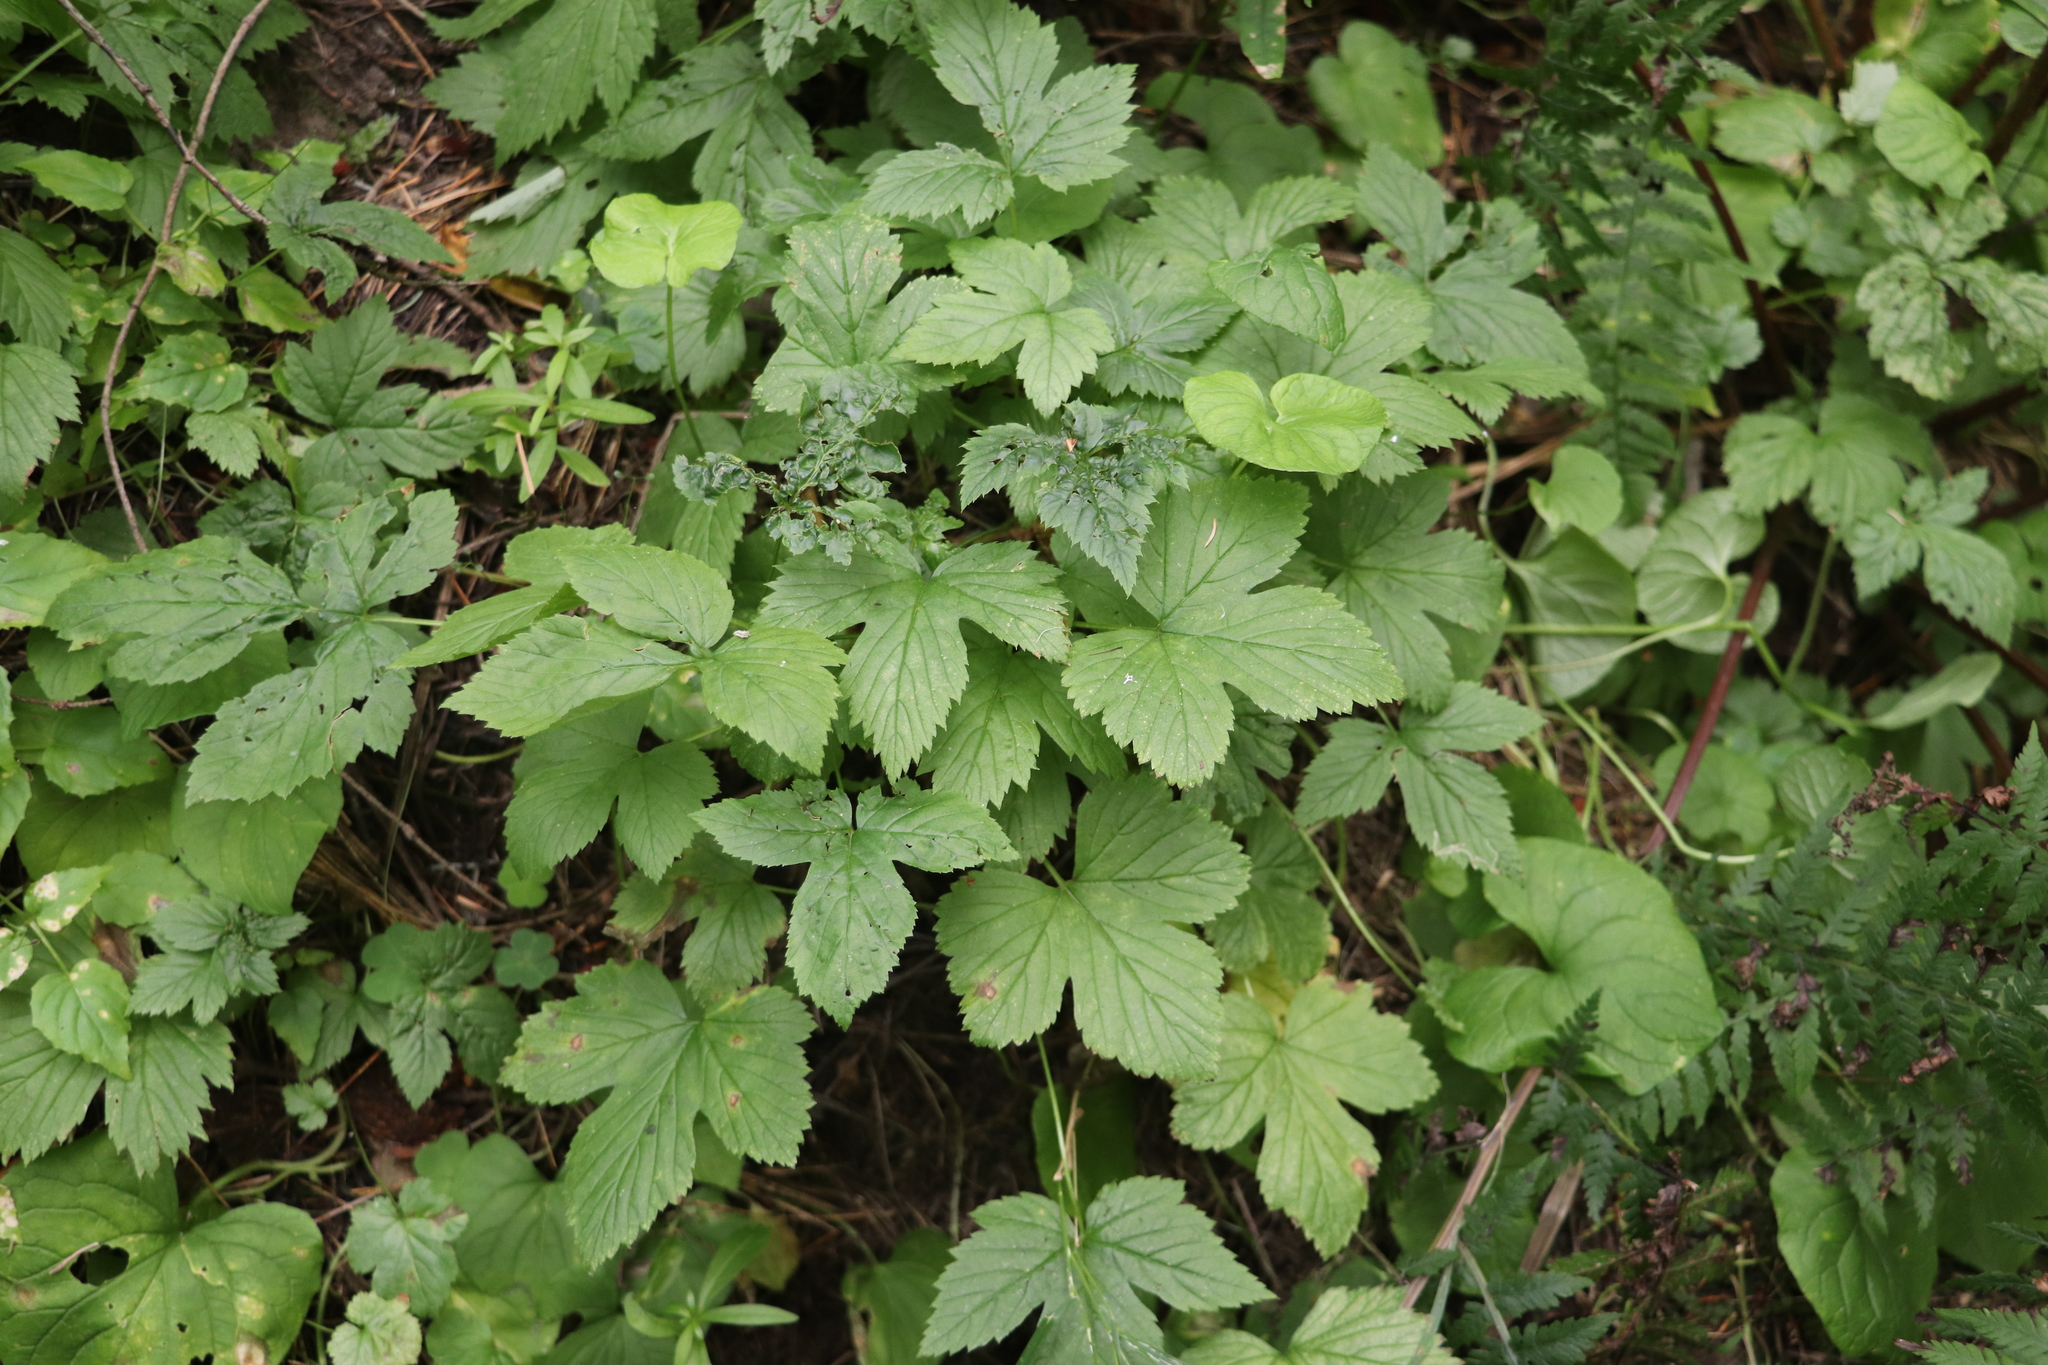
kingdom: Plantae
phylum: Tracheophyta
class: Magnoliopsida
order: Rosales
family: Rosaceae
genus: Rubus
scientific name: Rubus humulifolius
